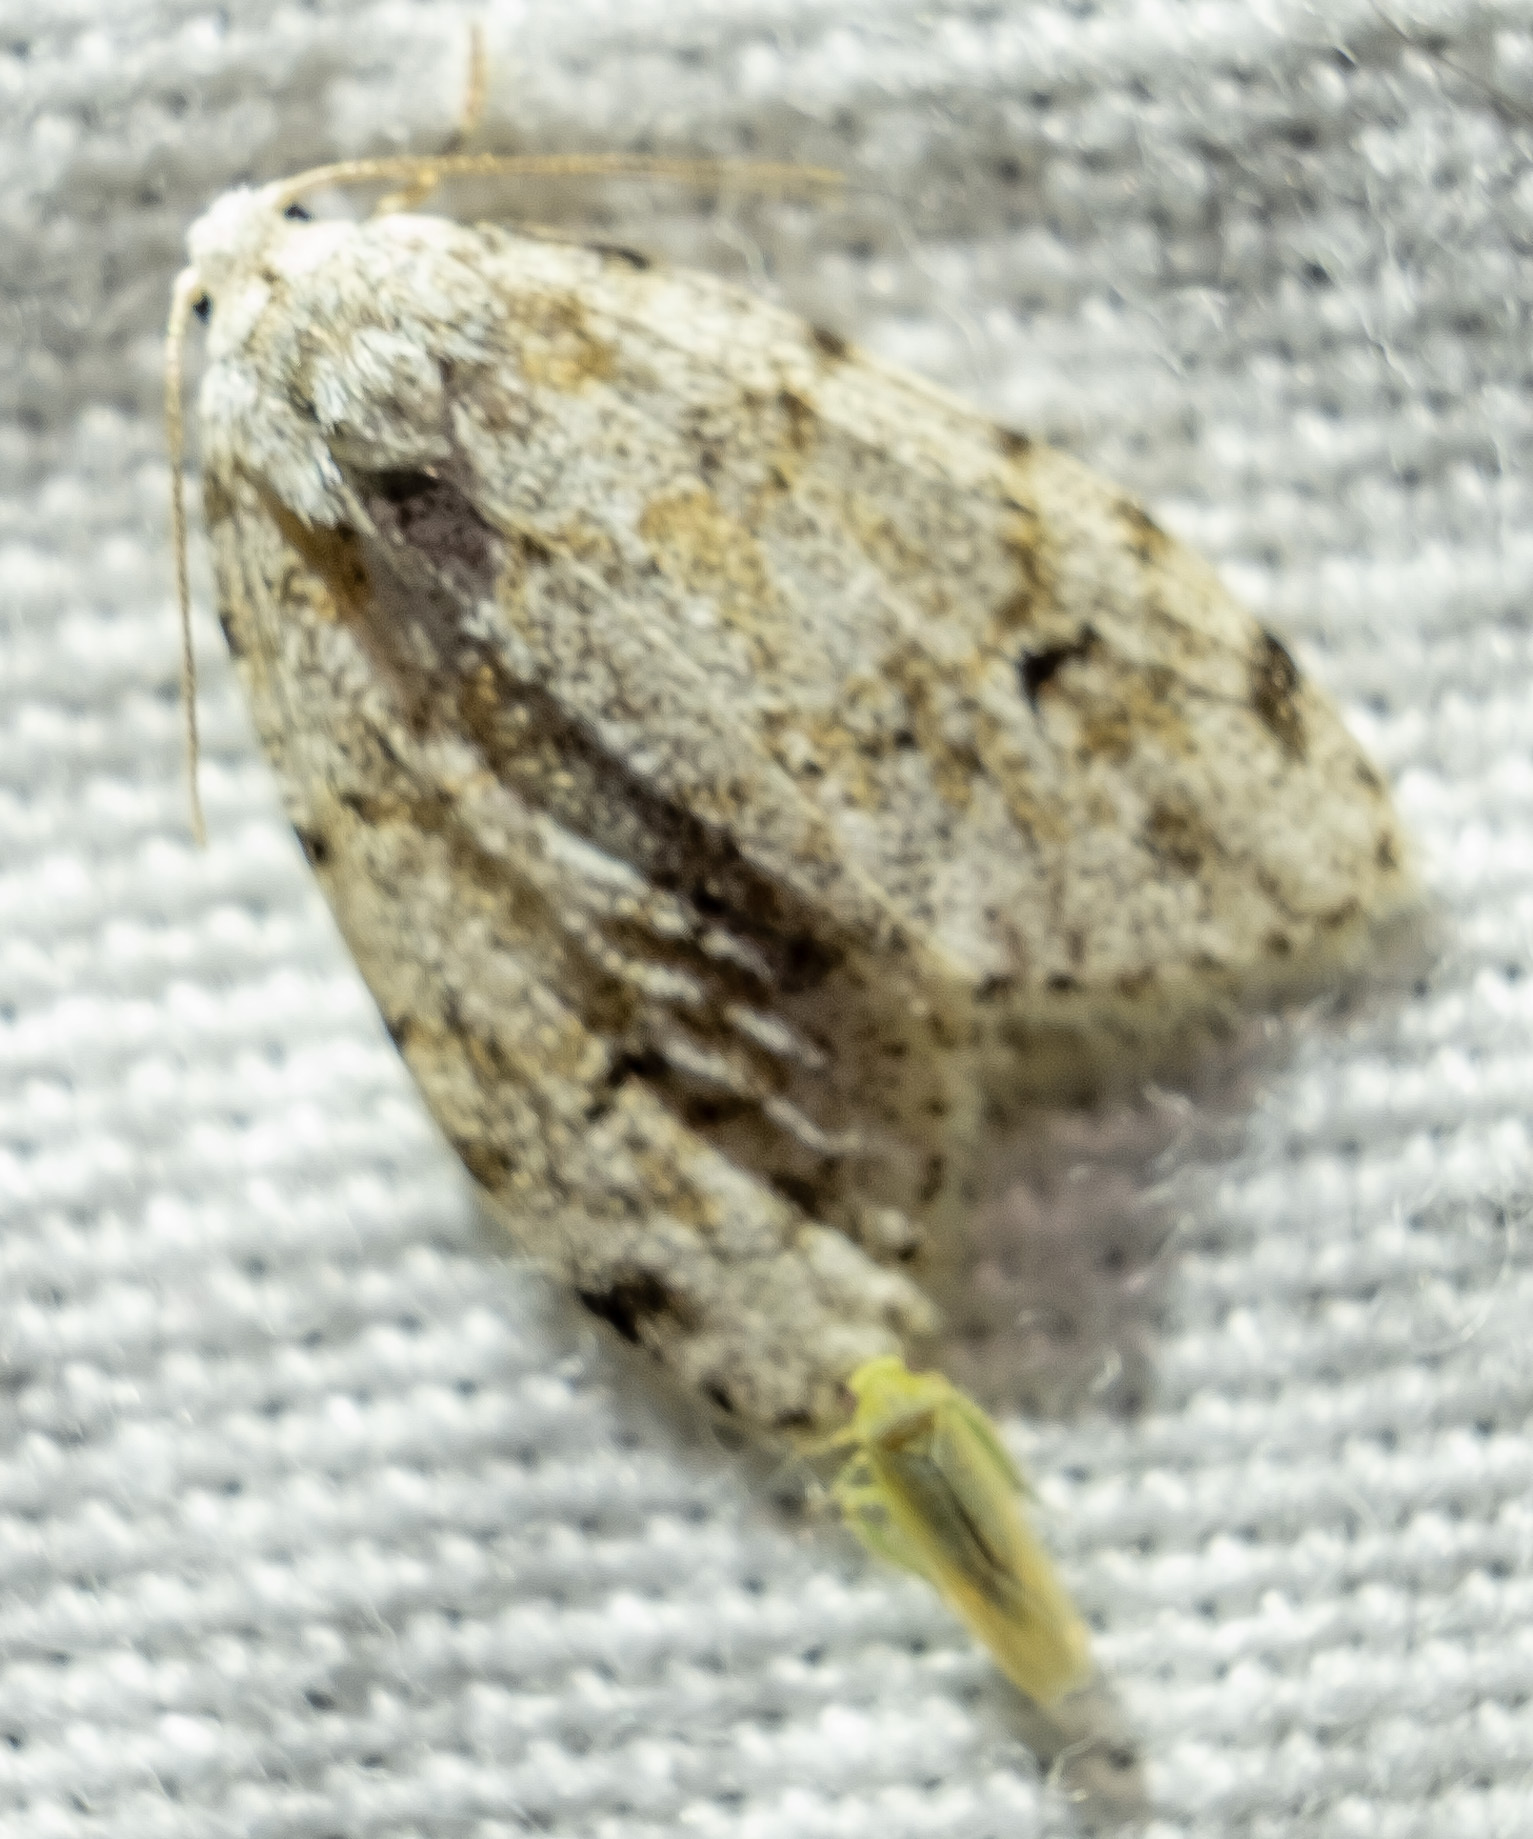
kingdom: Animalia
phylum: Arthropoda
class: Insecta
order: Lepidoptera
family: Erebidae
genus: Clemensia
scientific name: Clemensia albata
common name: Little white lichen moth
